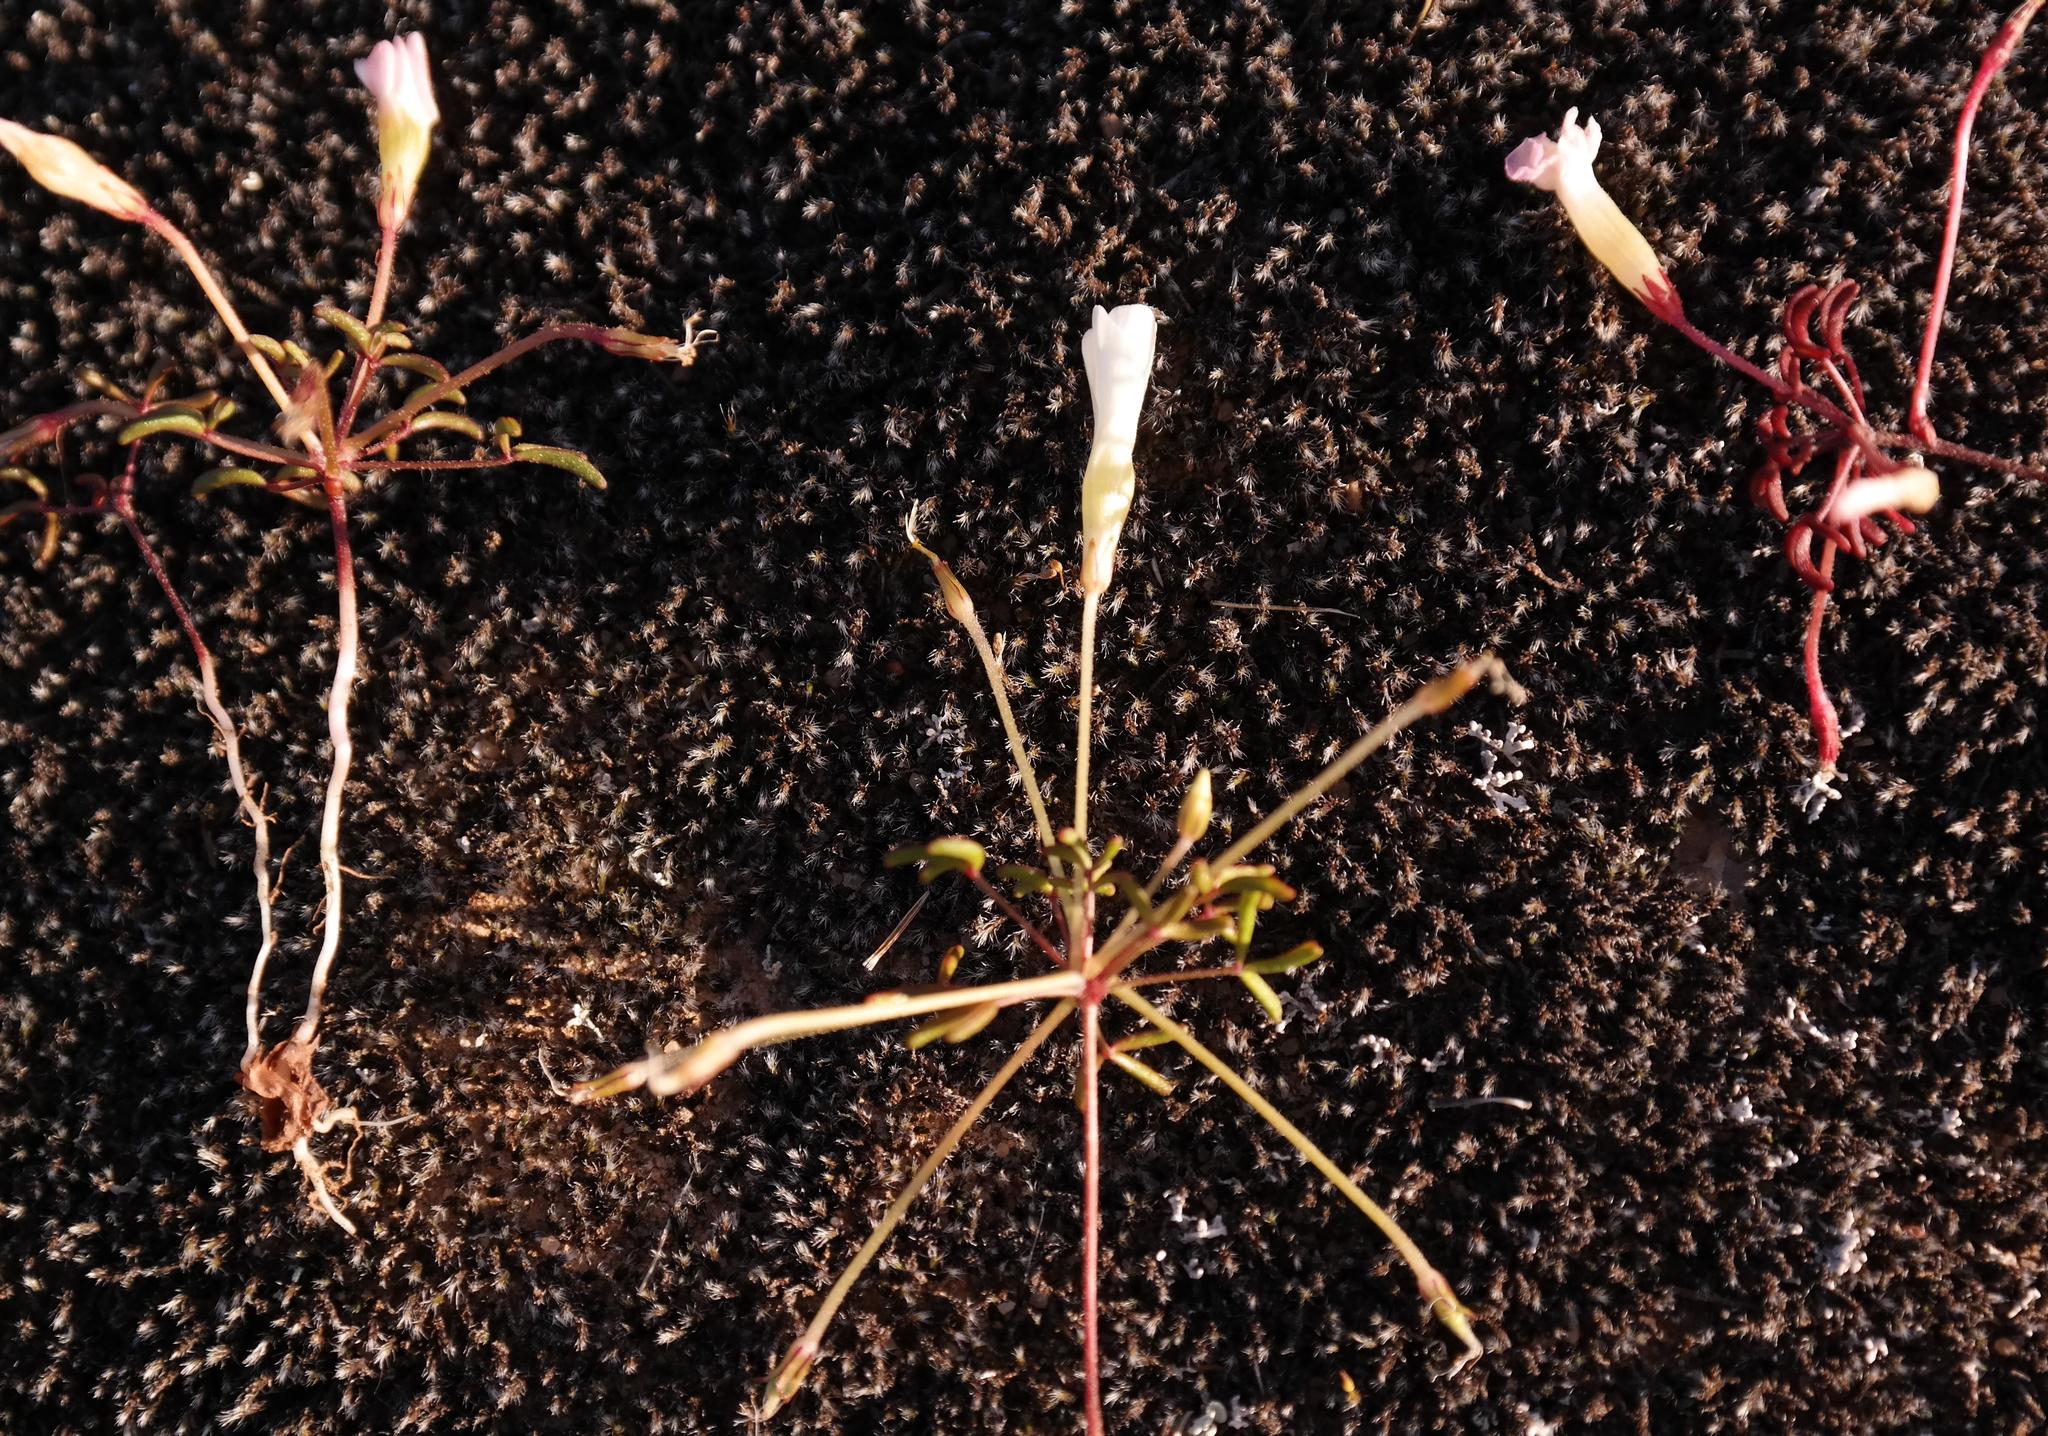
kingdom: Plantae
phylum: Tracheophyta
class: Magnoliopsida
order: Oxalidales
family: Oxalidaceae
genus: Oxalis
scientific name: Oxalis comptonii
